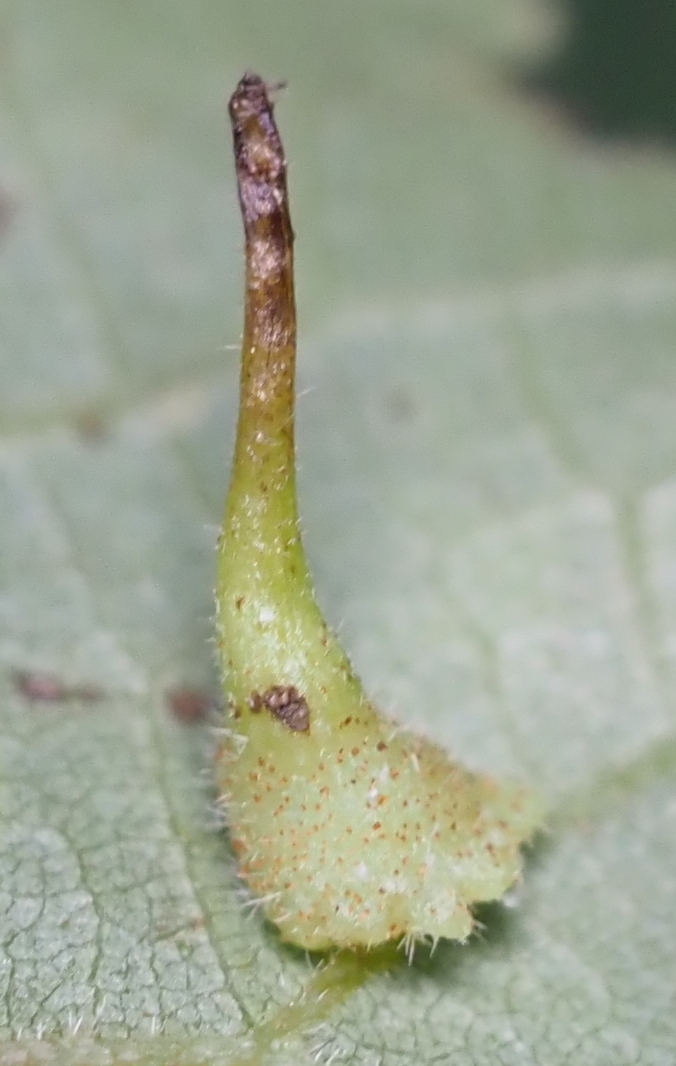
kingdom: Animalia
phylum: Arthropoda
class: Insecta
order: Diptera
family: Cecidomyiidae
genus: Caryomyia
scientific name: Caryomyia inclinata
